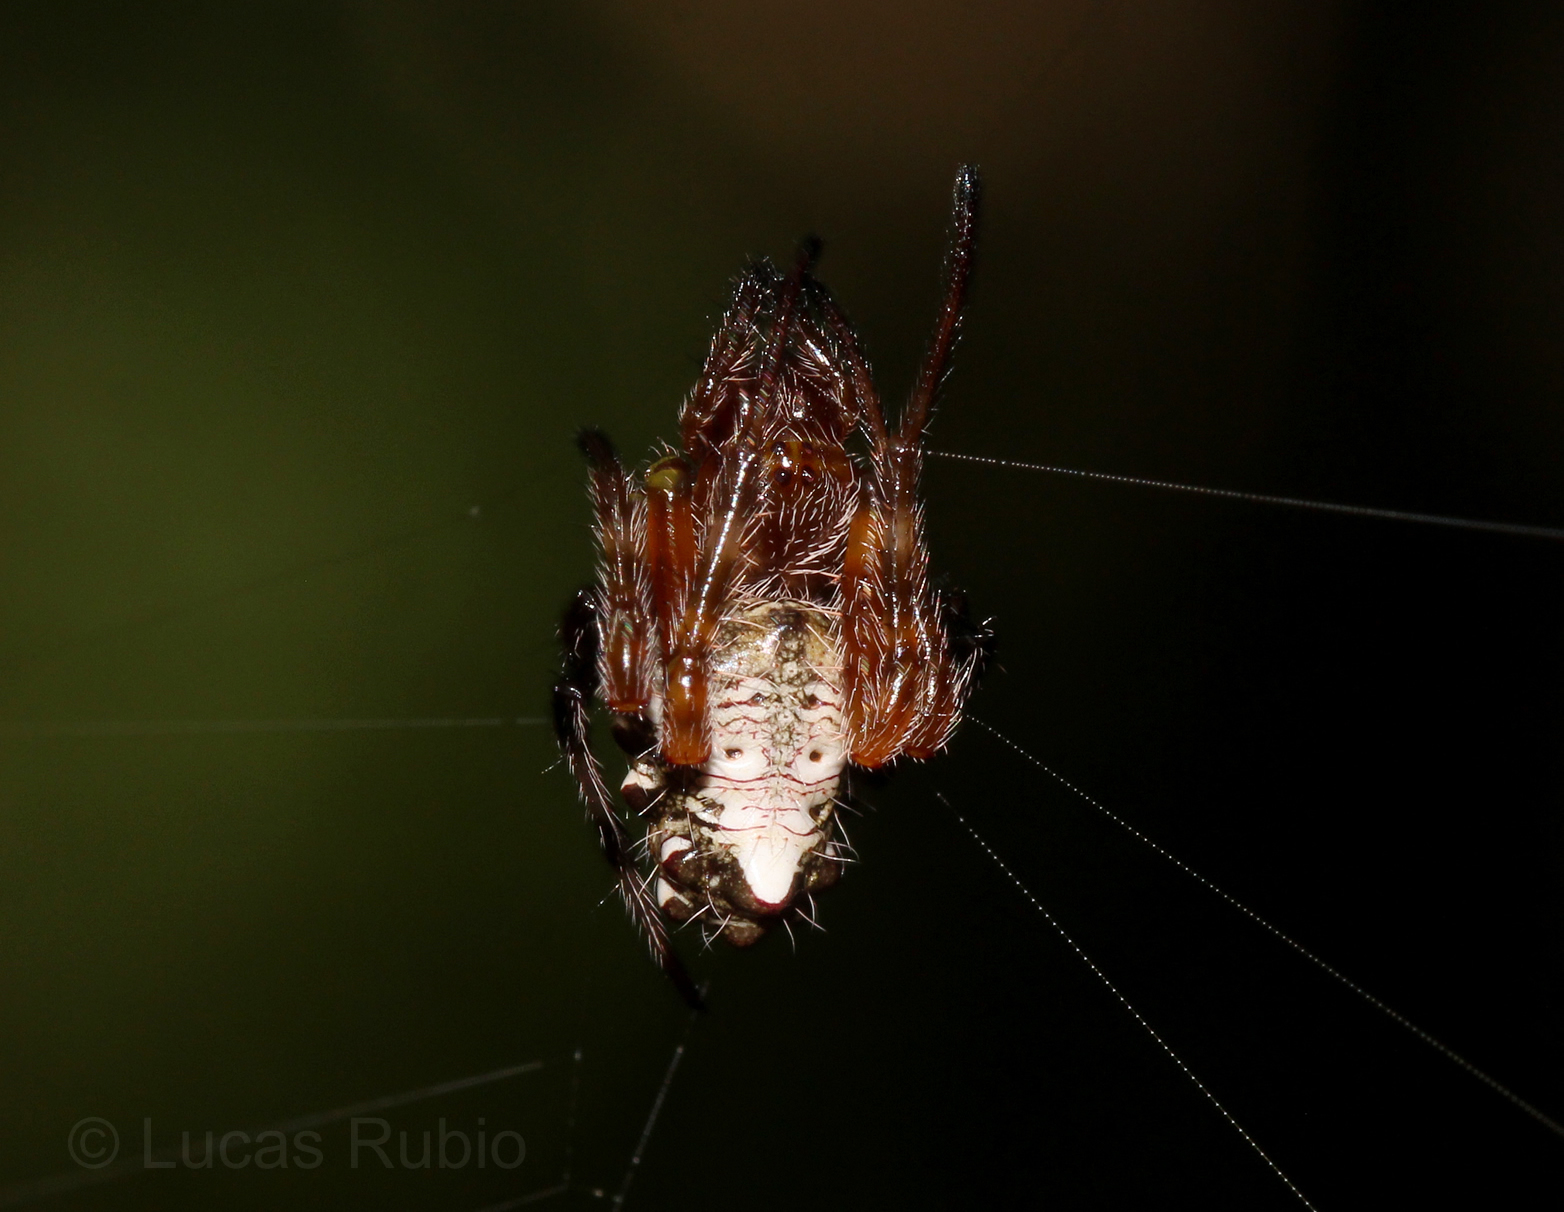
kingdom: Animalia
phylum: Arthropoda
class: Arachnida
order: Araneae
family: Araneidae
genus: Verrucosa
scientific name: Verrucosa meridionalis
